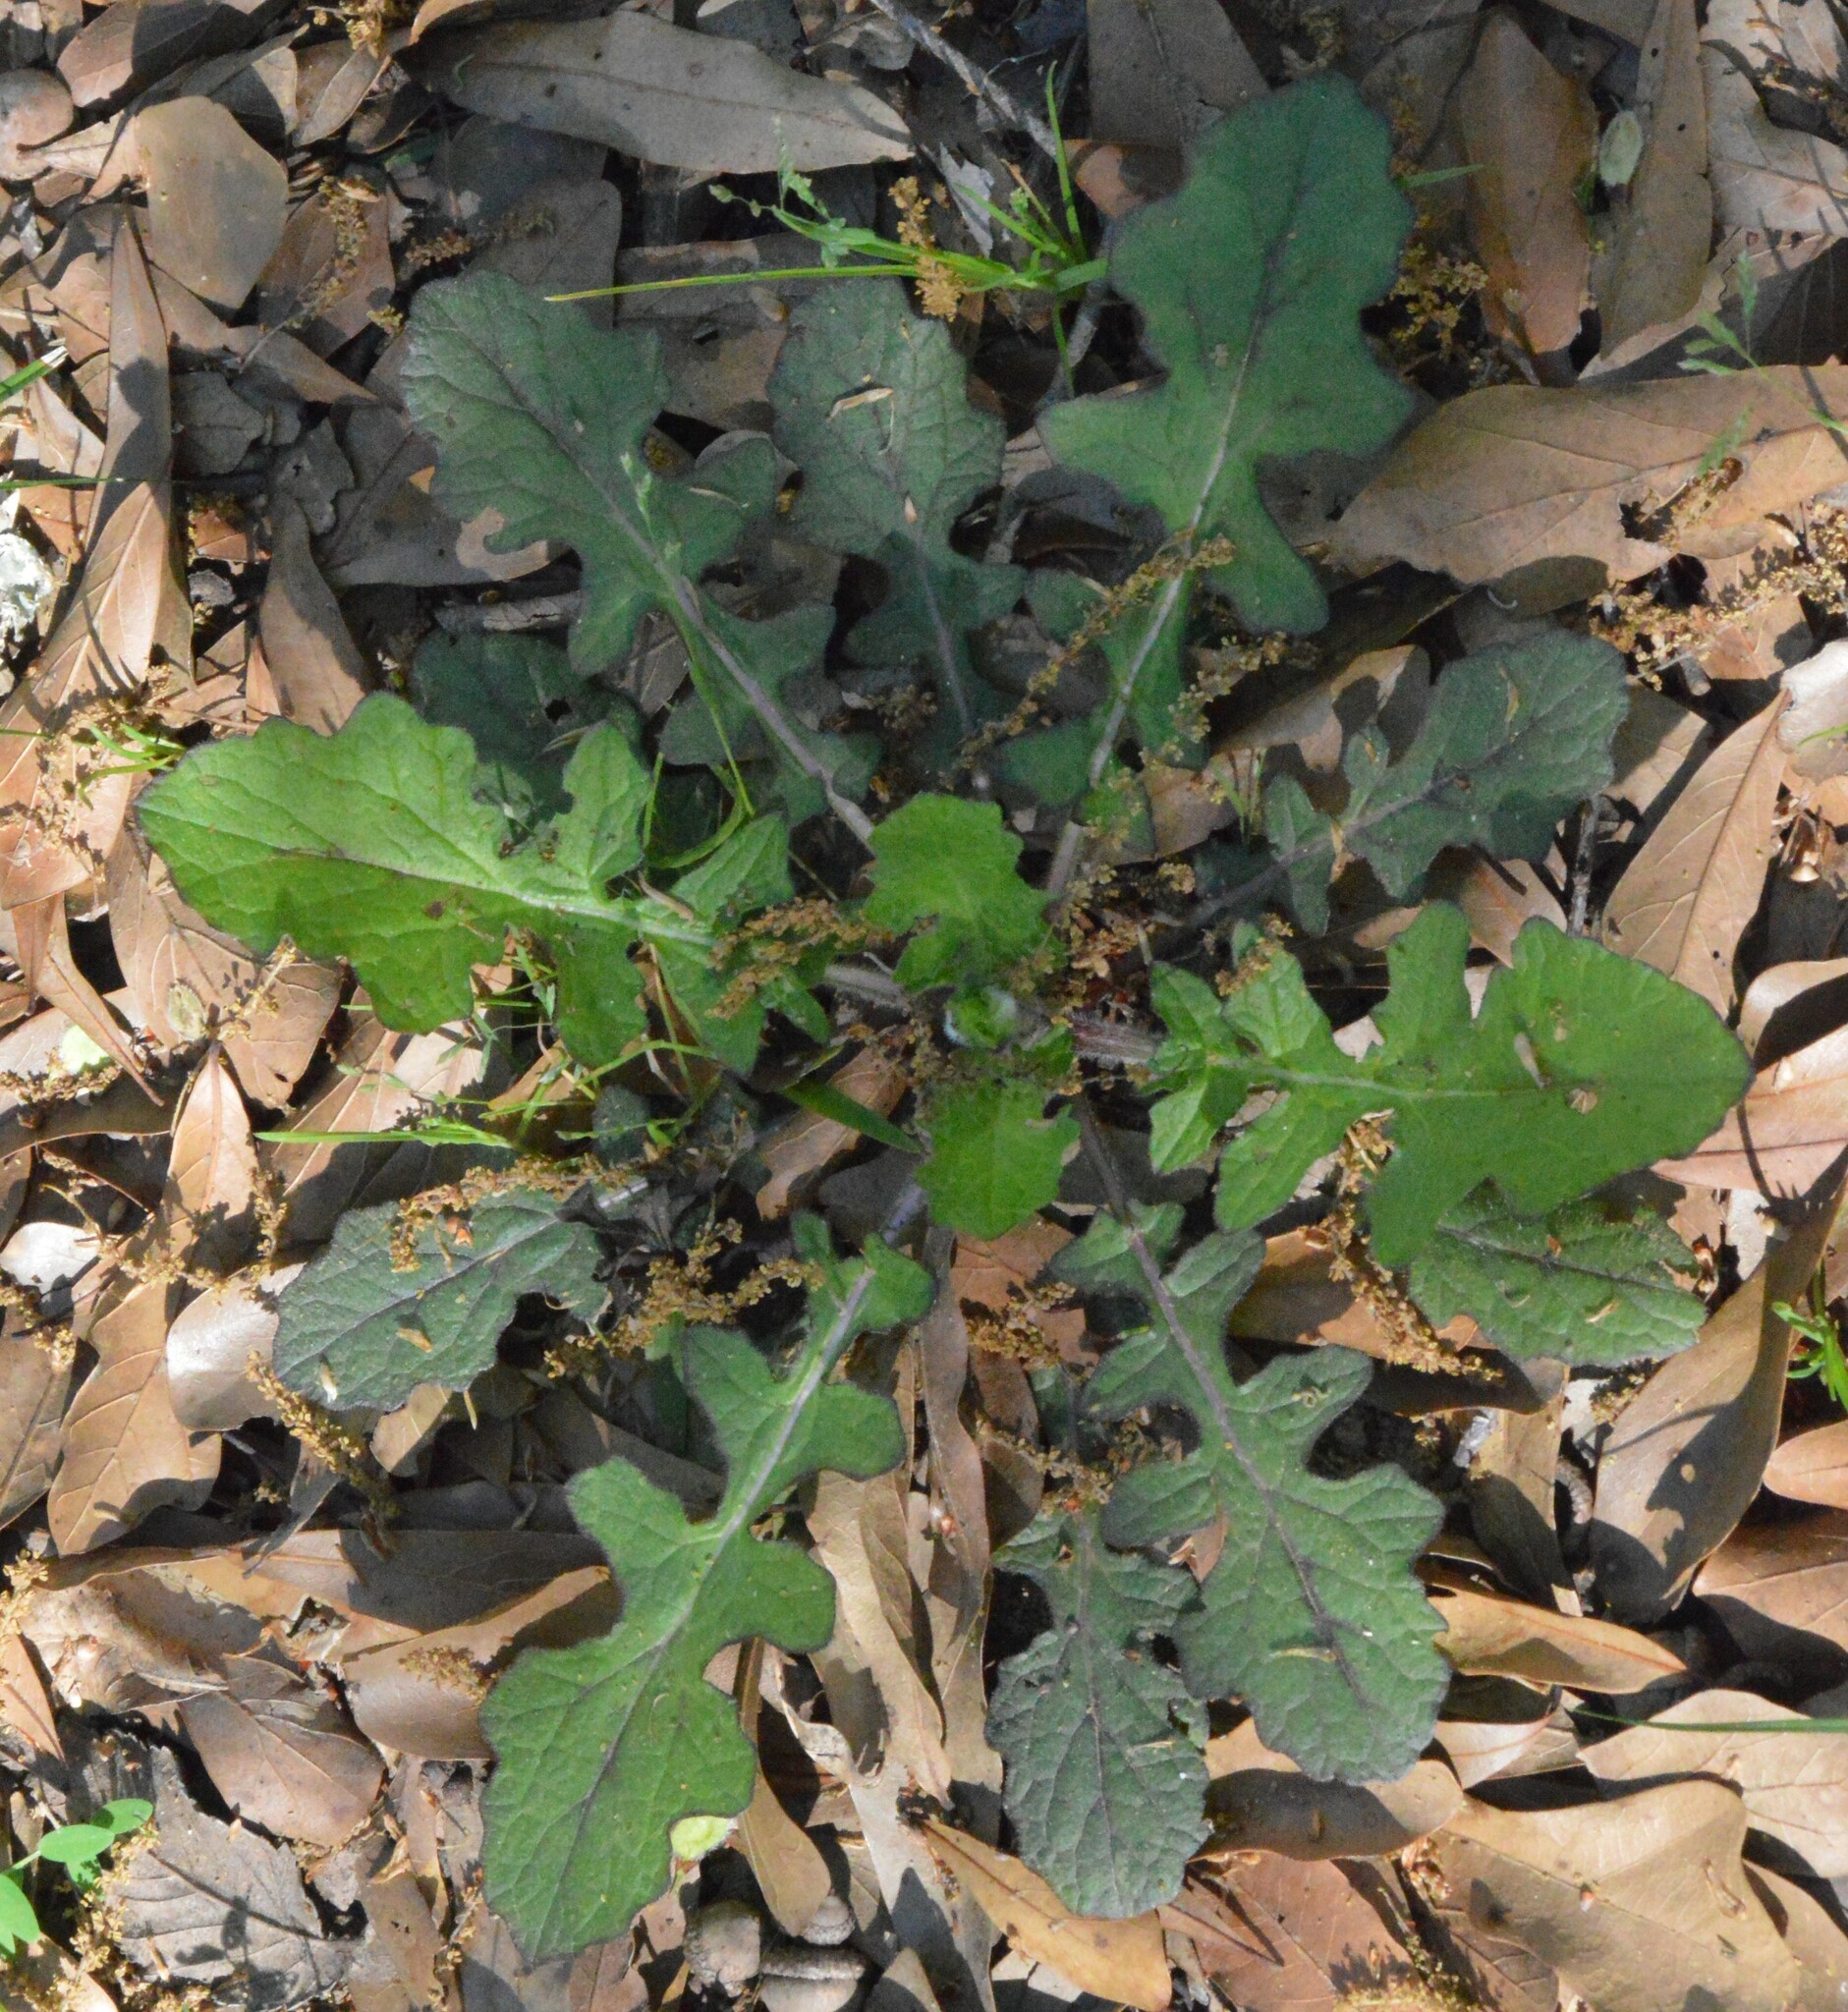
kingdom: Plantae
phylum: Tracheophyta
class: Magnoliopsida
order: Lamiales
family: Lamiaceae
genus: Salvia
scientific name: Salvia lyrata
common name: Cancerweed
